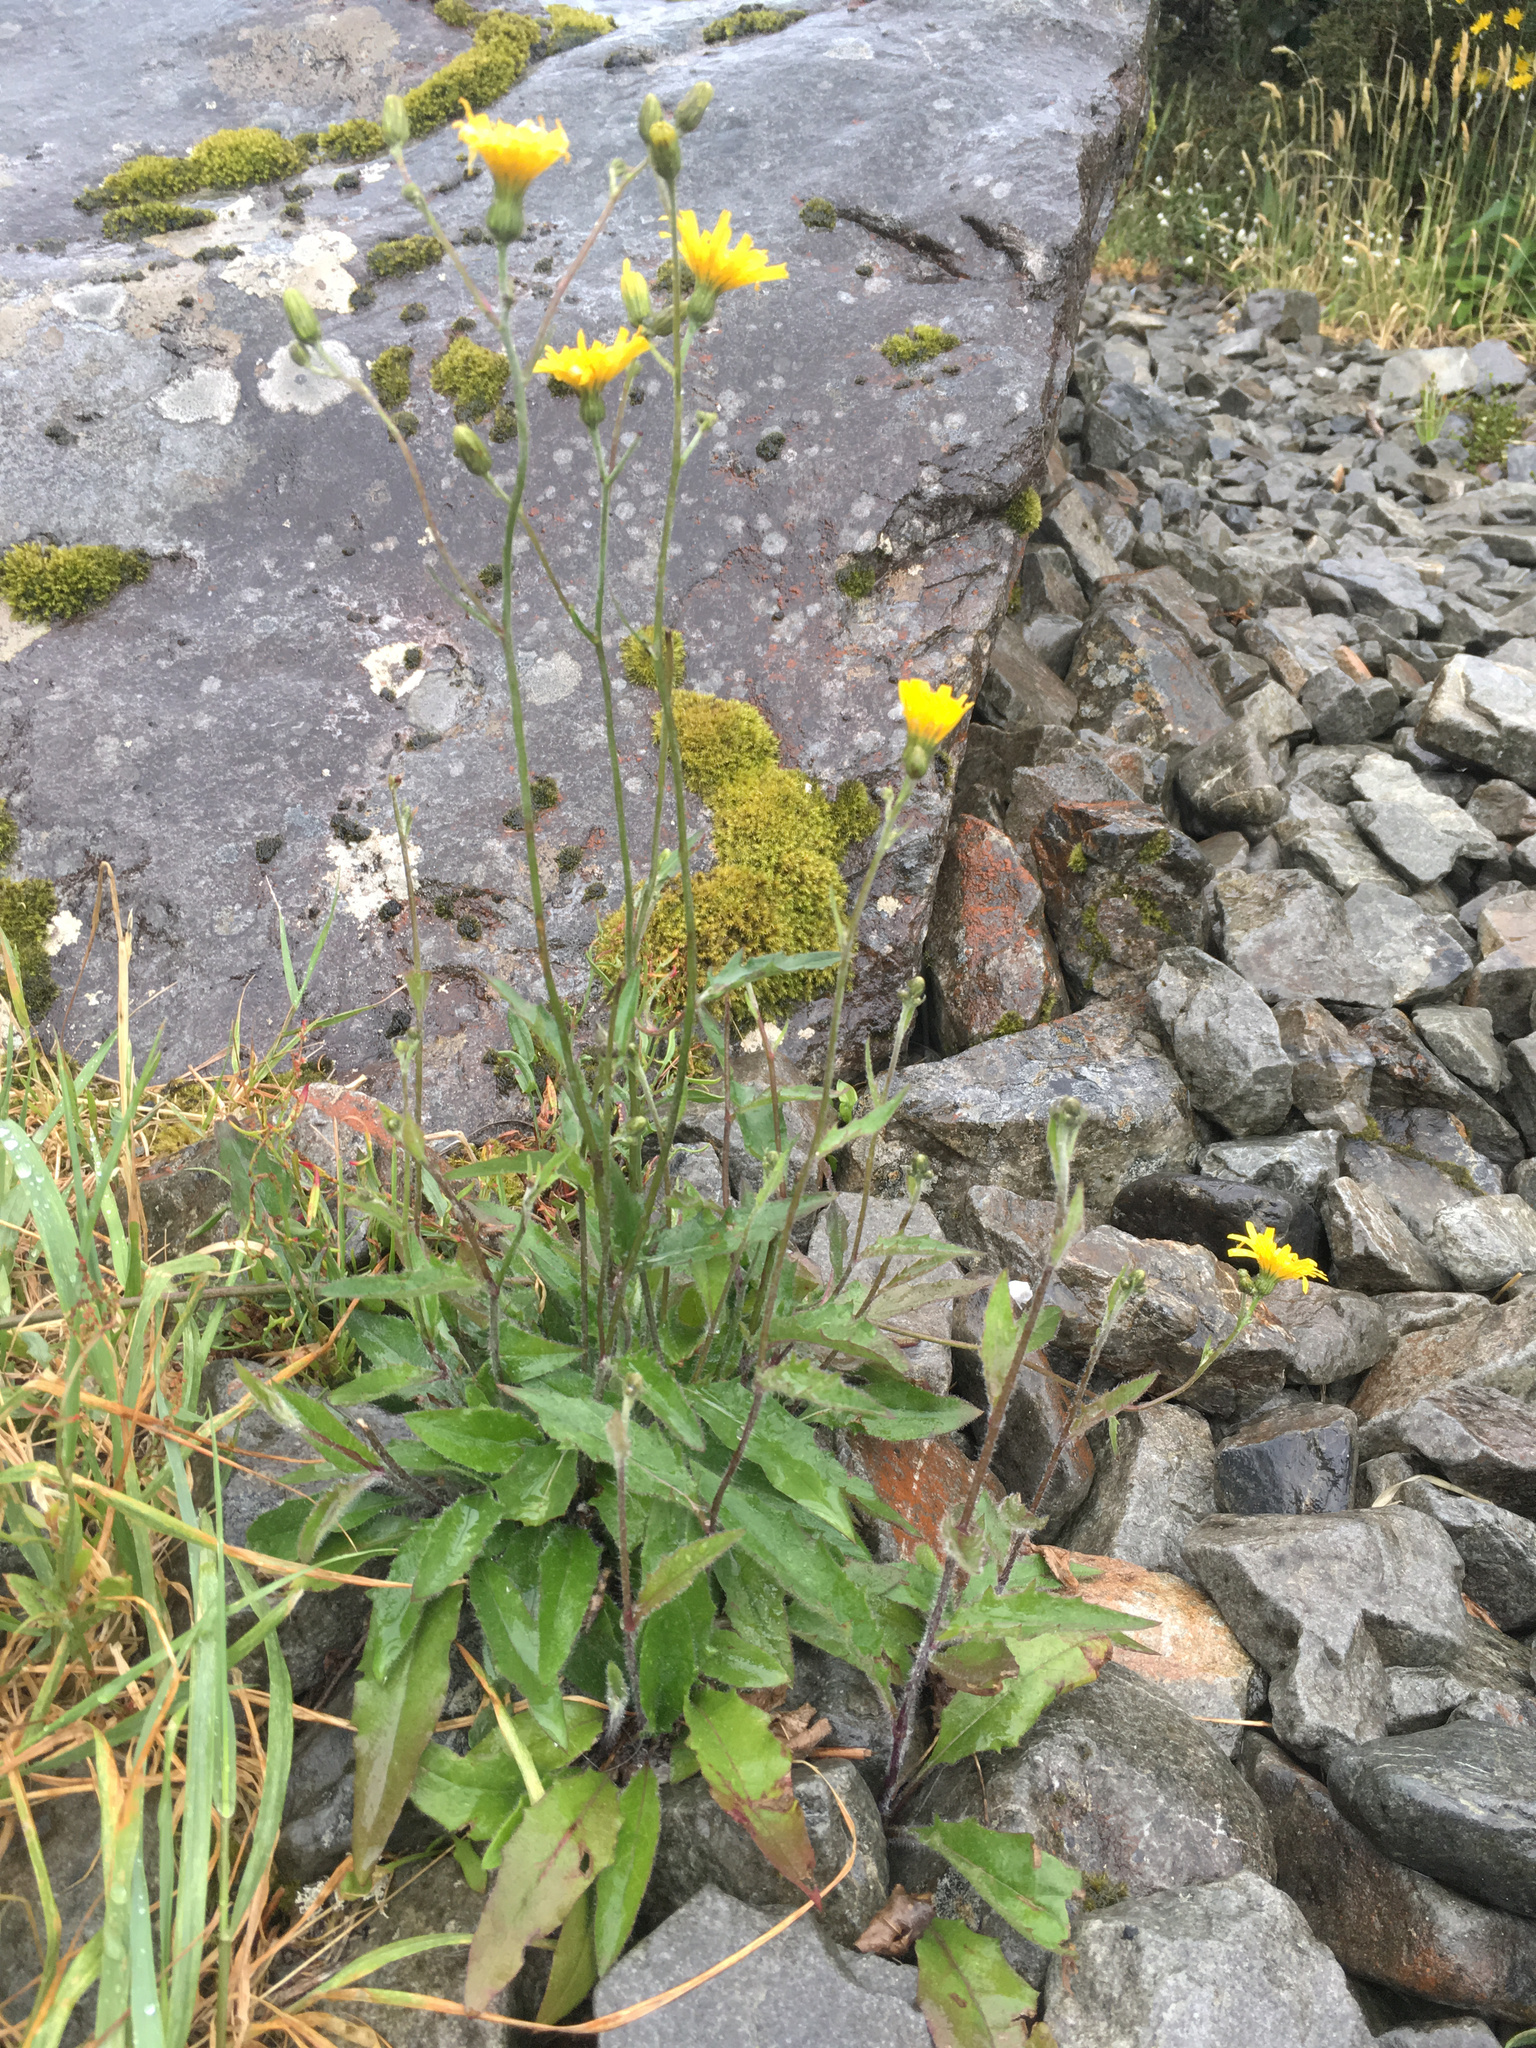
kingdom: Plantae
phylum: Tracheophyta
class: Magnoliopsida
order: Asterales
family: Asteraceae
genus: Hieracium
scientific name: Hieracium lepidulum
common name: Irregular-toothed hawkweed
